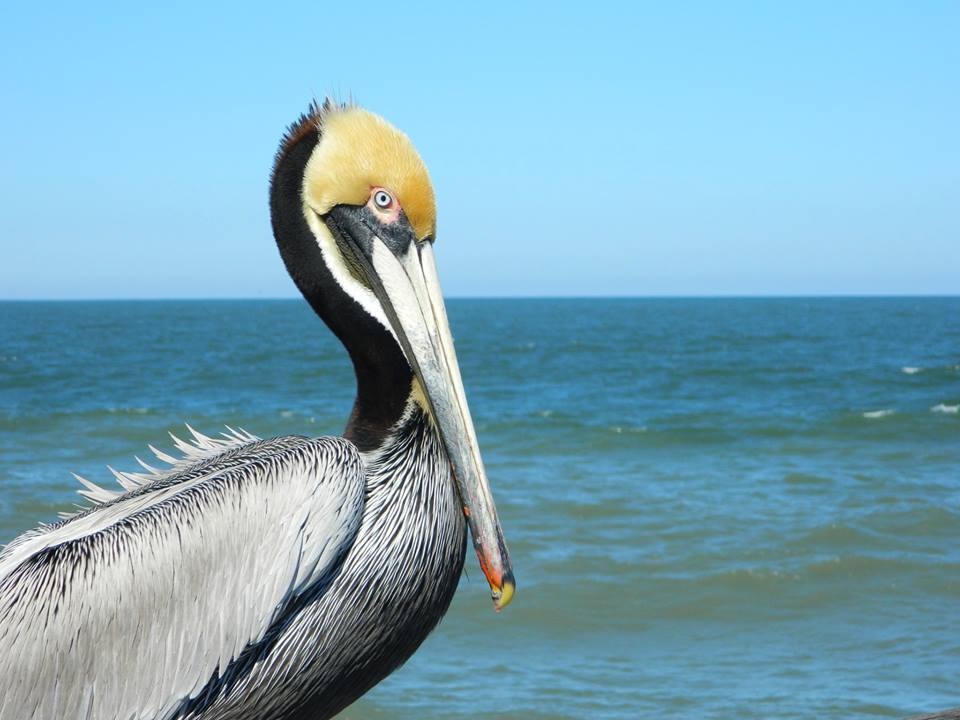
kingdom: Animalia
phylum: Chordata
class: Aves
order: Pelecaniformes
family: Pelecanidae
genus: Pelecanus
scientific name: Pelecanus occidentalis
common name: Brown pelican
